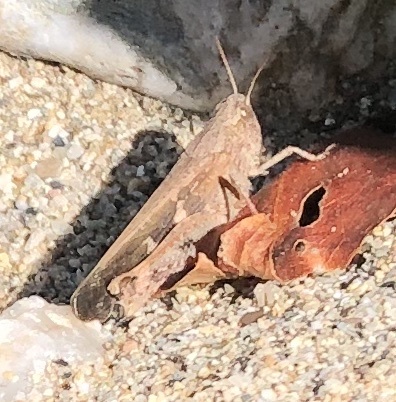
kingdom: Animalia
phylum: Arthropoda
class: Insecta
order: Orthoptera
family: Acrididae
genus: Aiolopus
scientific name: Aiolopus strepens
